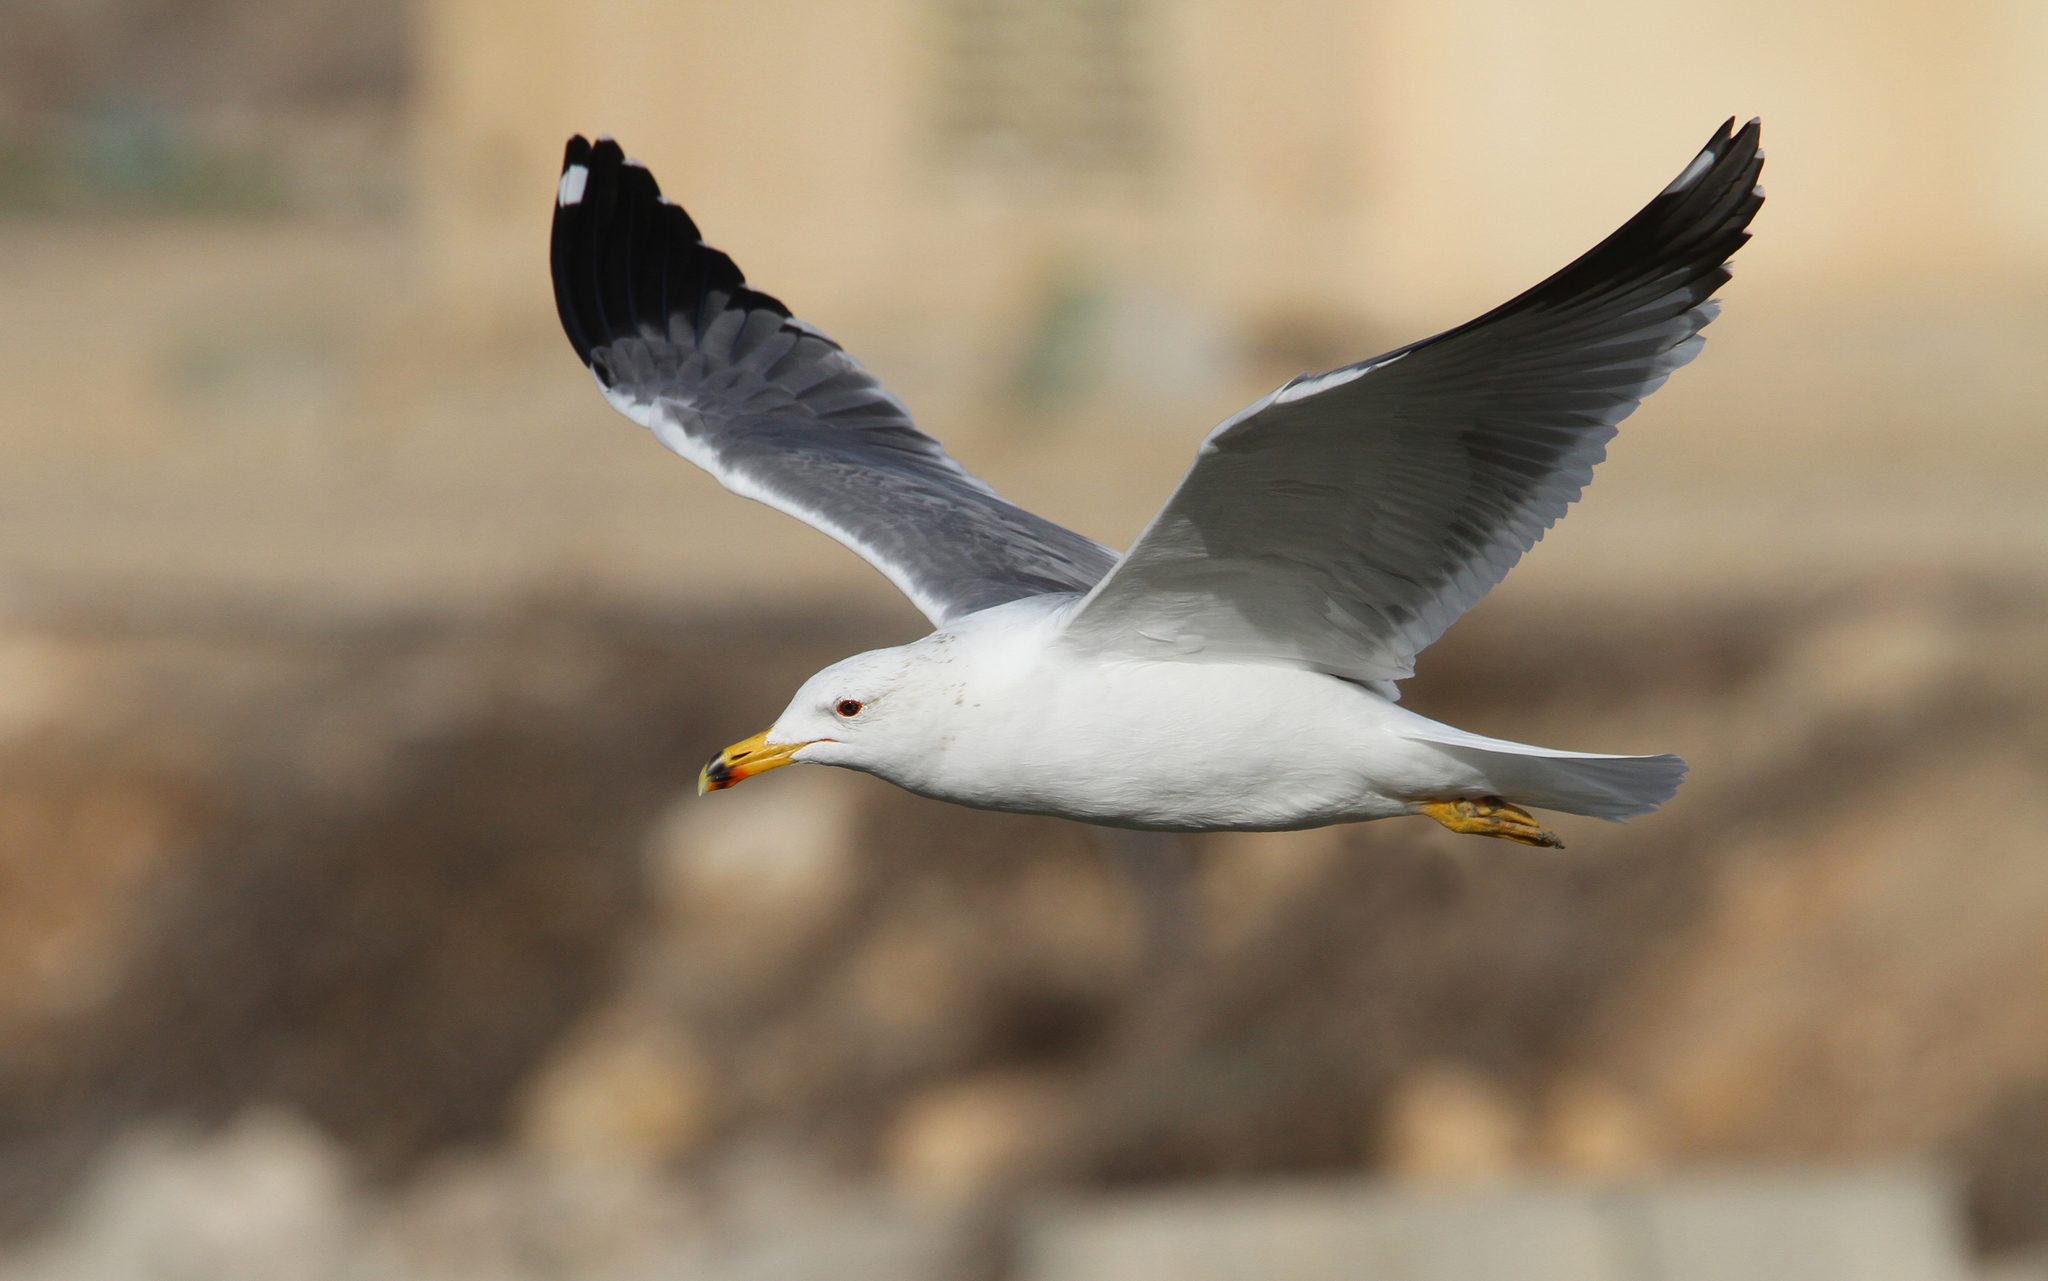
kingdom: Animalia
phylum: Chordata
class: Aves
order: Charadriiformes
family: Laridae
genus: Larus
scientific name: Larus armenicus
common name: Armenian gull
